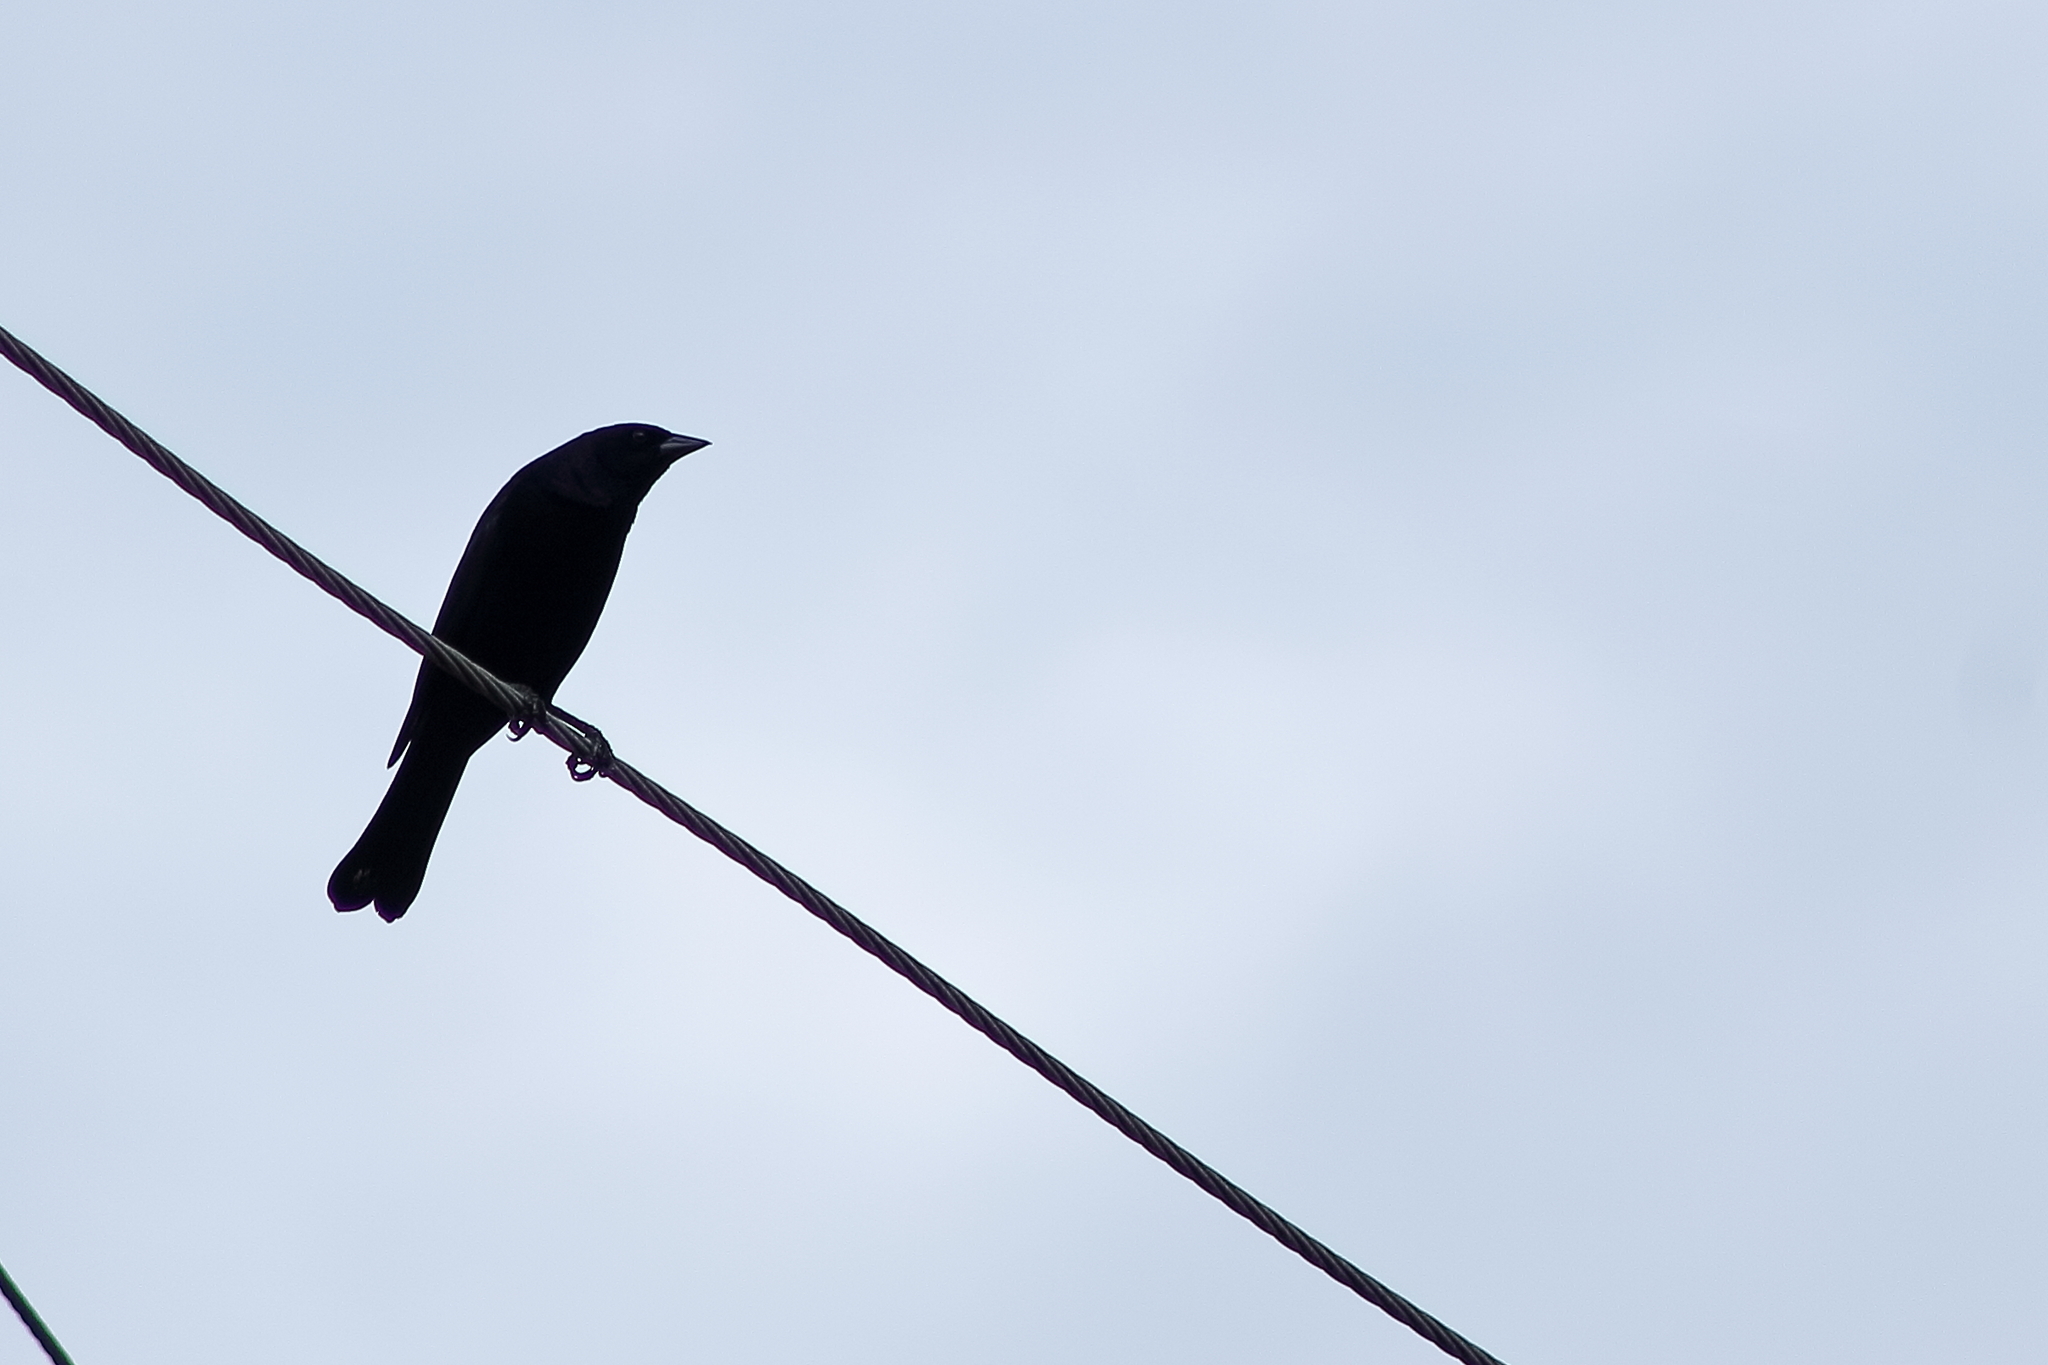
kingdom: Animalia
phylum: Chordata
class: Aves
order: Passeriformes
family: Icteridae
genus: Molothrus
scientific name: Molothrus bonariensis
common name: Shiny cowbird
